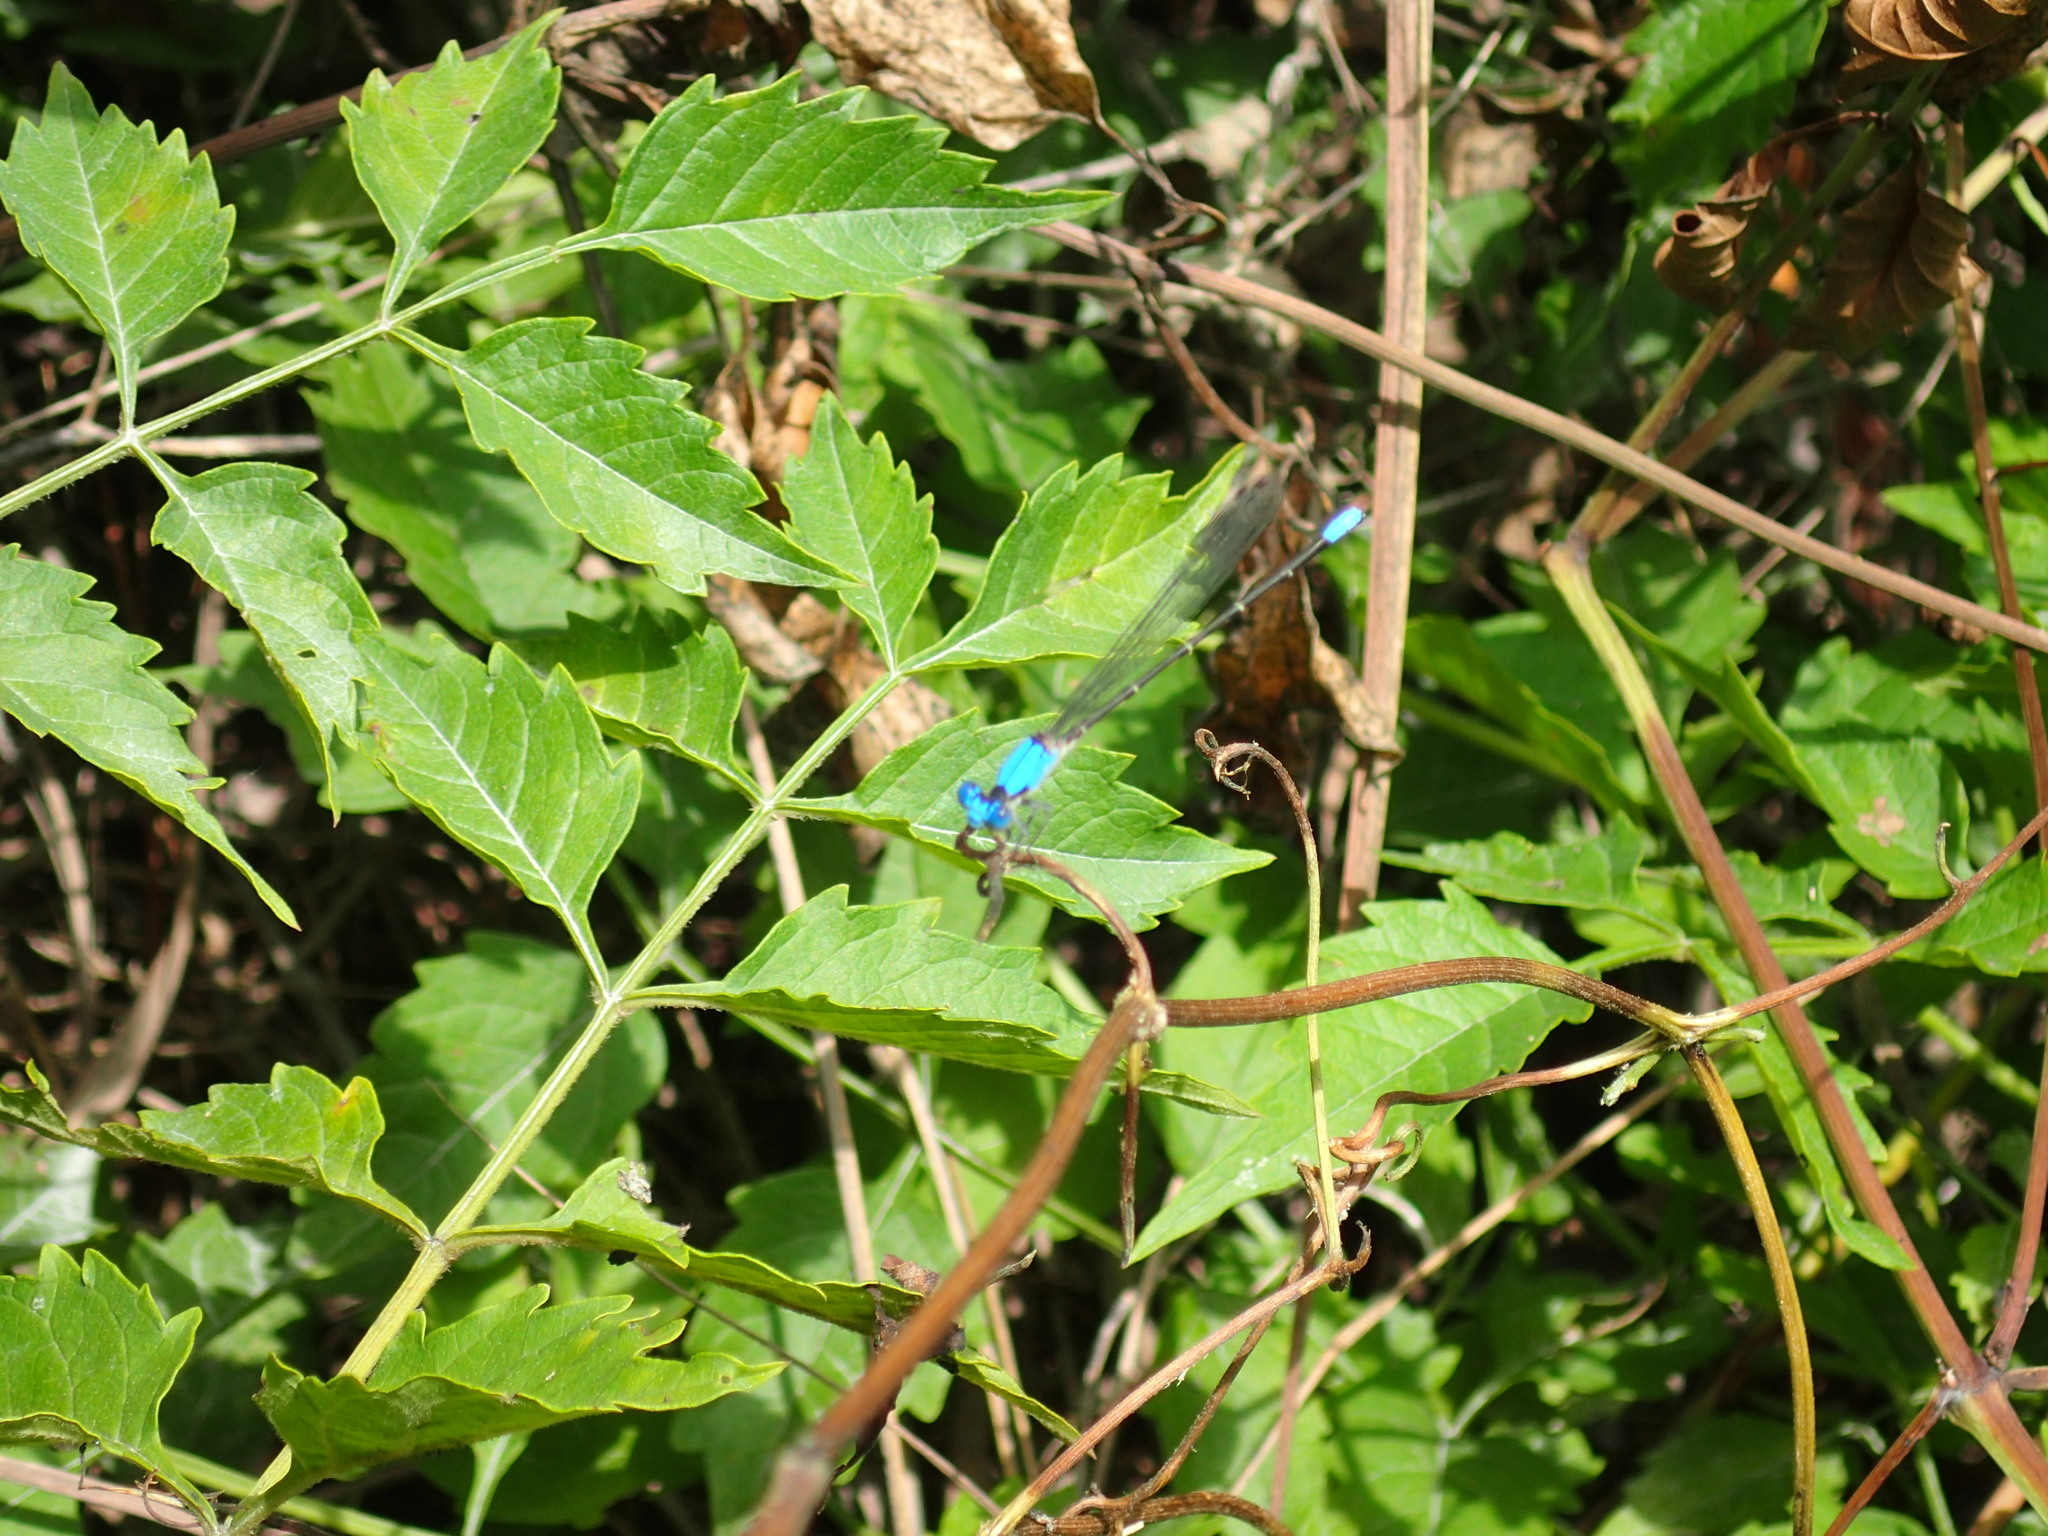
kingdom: Animalia
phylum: Arthropoda
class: Insecta
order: Odonata
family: Coenagrionidae
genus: Argia
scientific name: Argia apicalis
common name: Blue-fronted dancer
